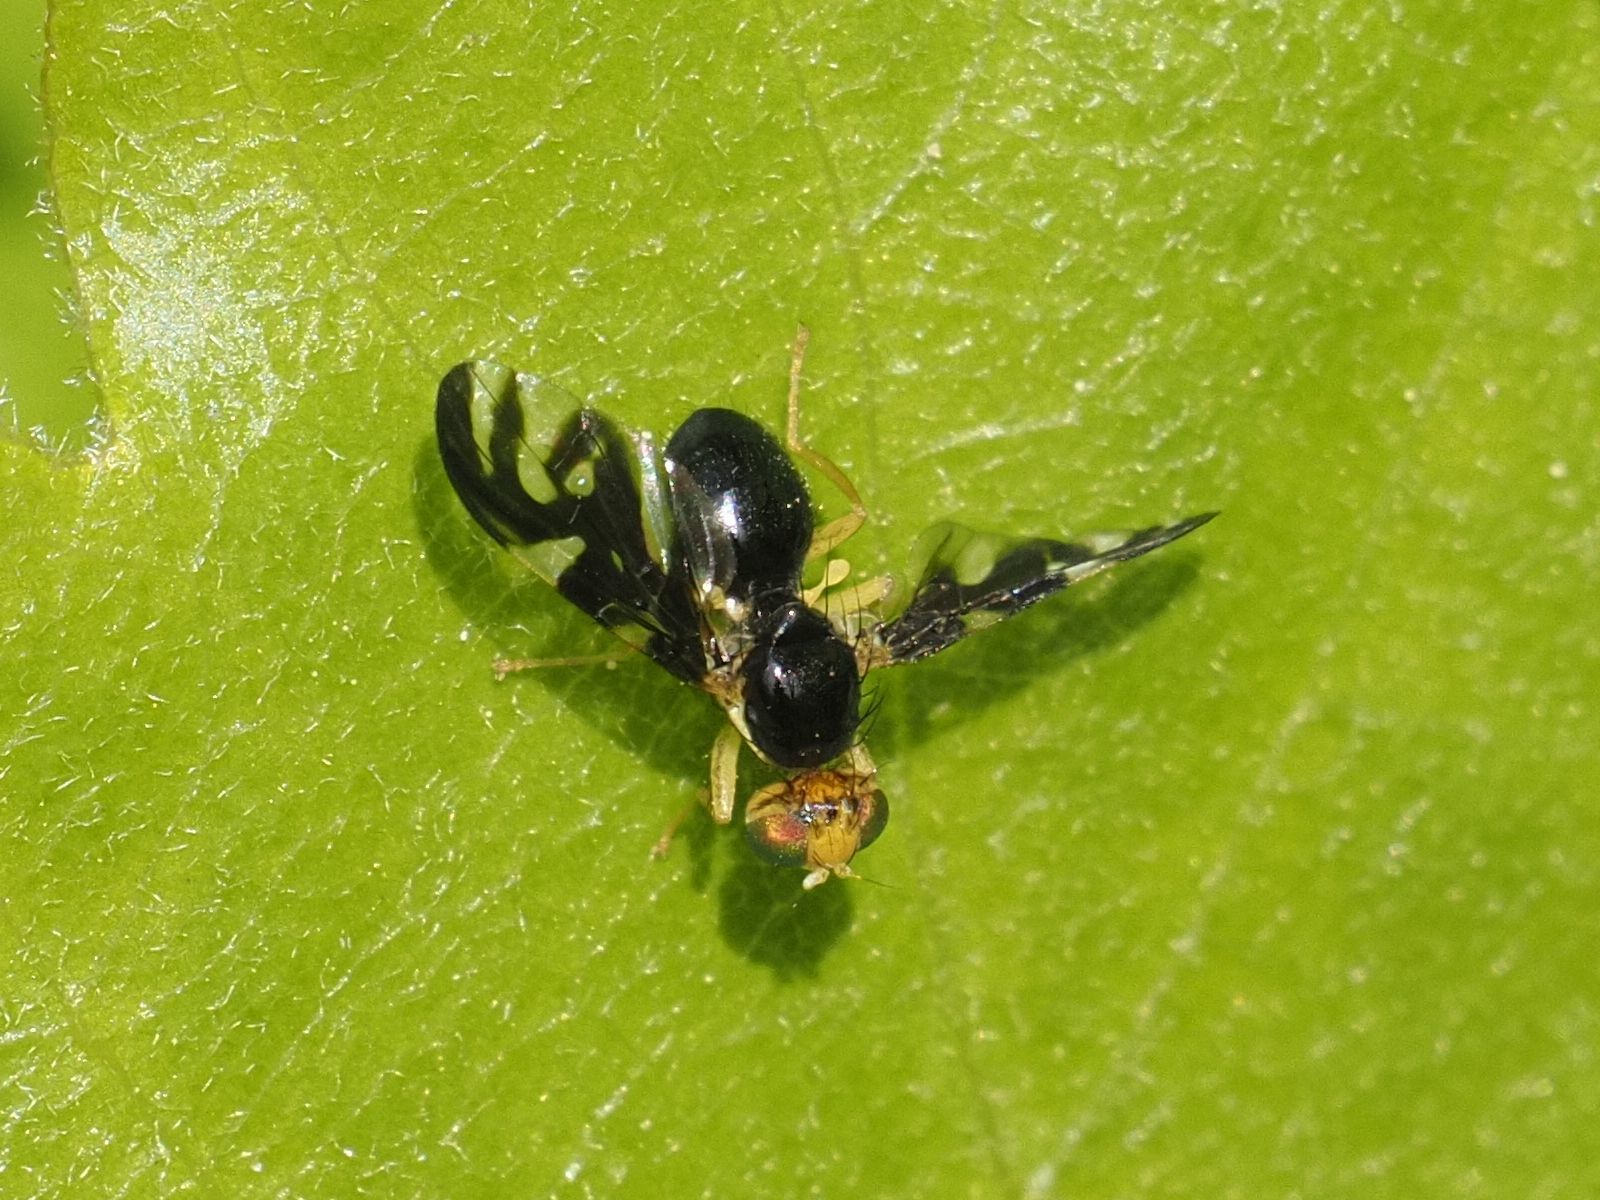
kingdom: Animalia
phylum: Arthropoda
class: Insecta
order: Diptera
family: Tephritidae
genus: Euleia
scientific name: Euleia heraclei
